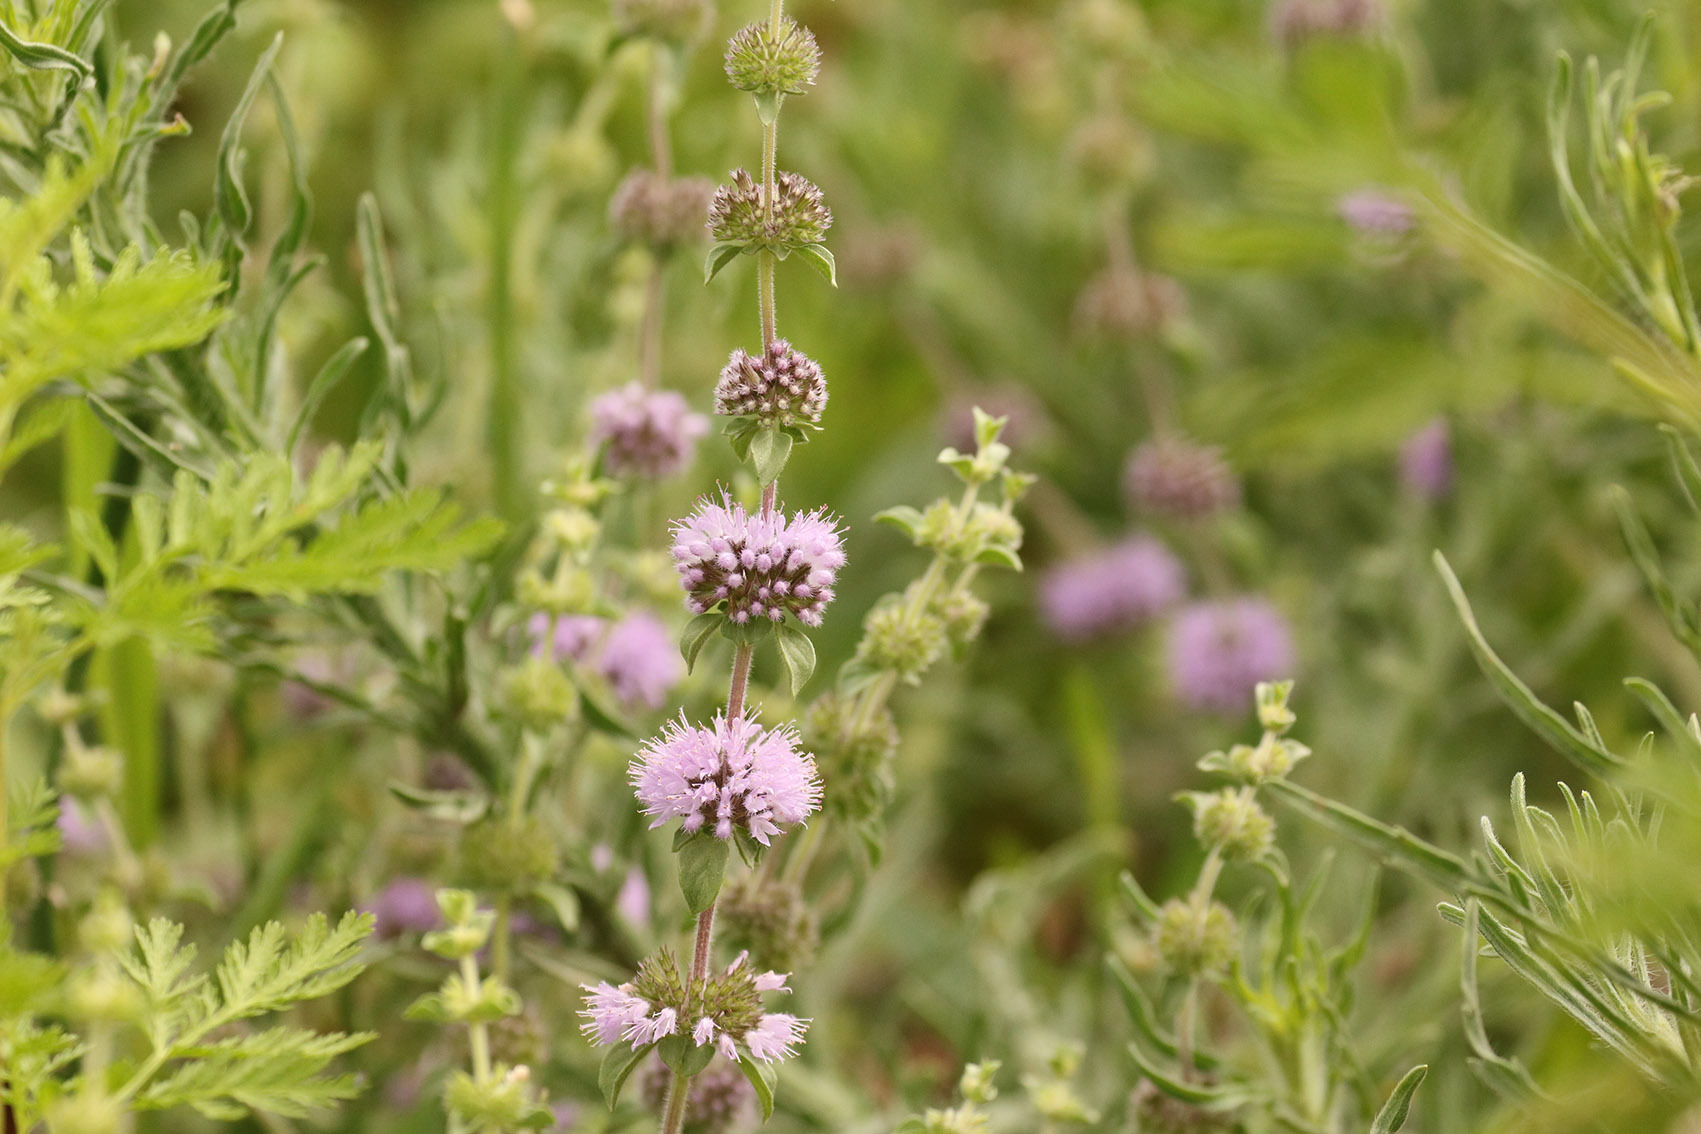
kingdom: Plantae
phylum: Tracheophyta
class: Magnoliopsida
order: Lamiales
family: Lamiaceae
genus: Mentha
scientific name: Mentha pulegium
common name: Pennyroyal
